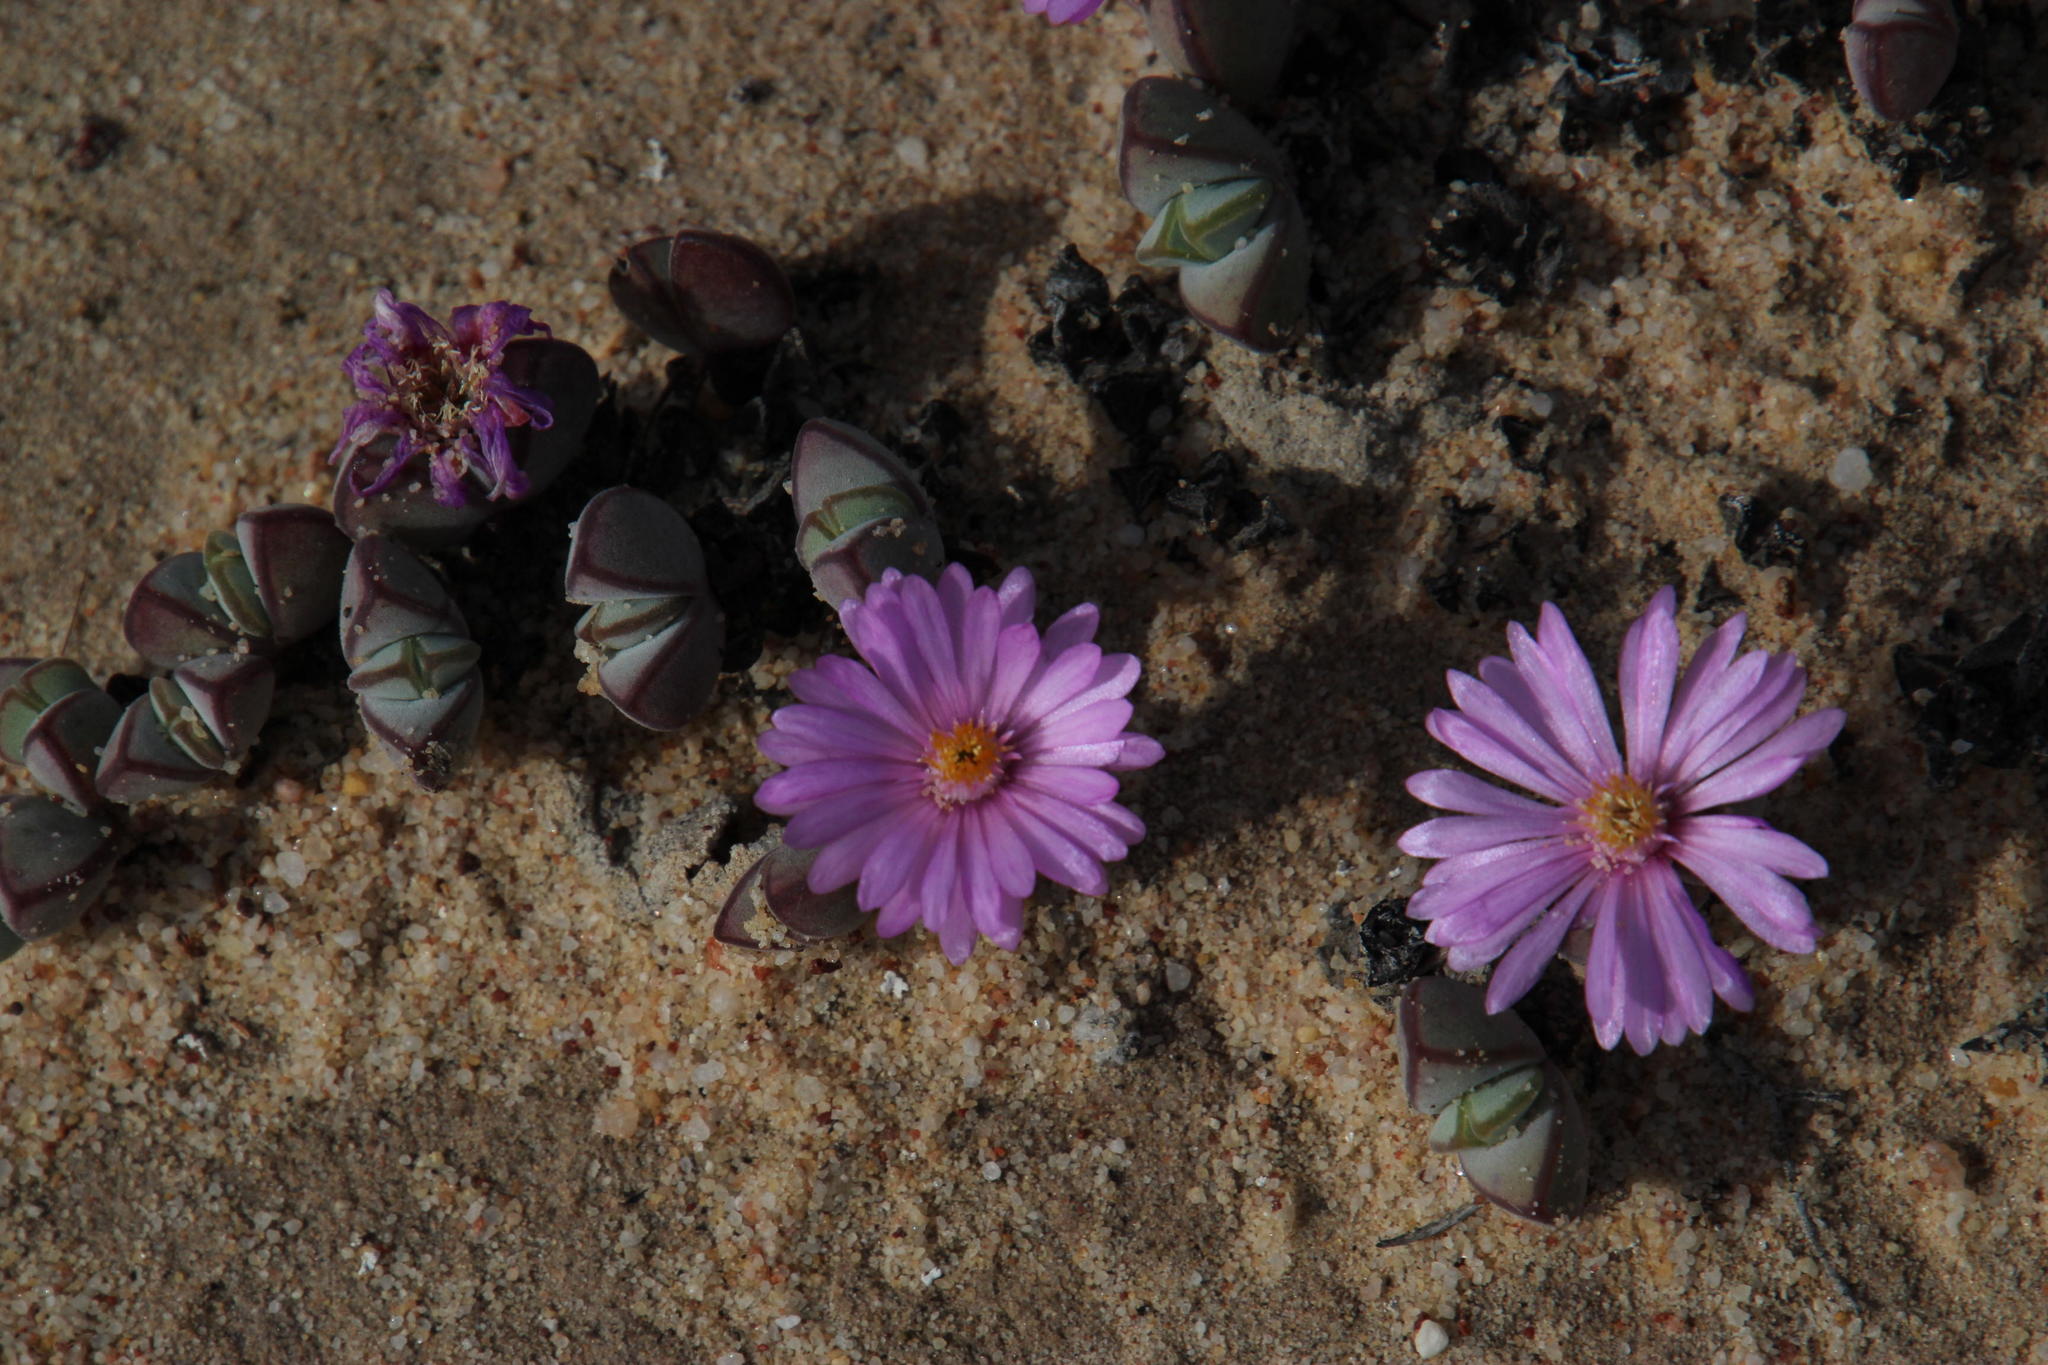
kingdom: Plantae
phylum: Tracheophyta
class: Magnoliopsida
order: Caryophyllales
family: Aizoaceae
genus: Braunsia
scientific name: Braunsia maximiliani
